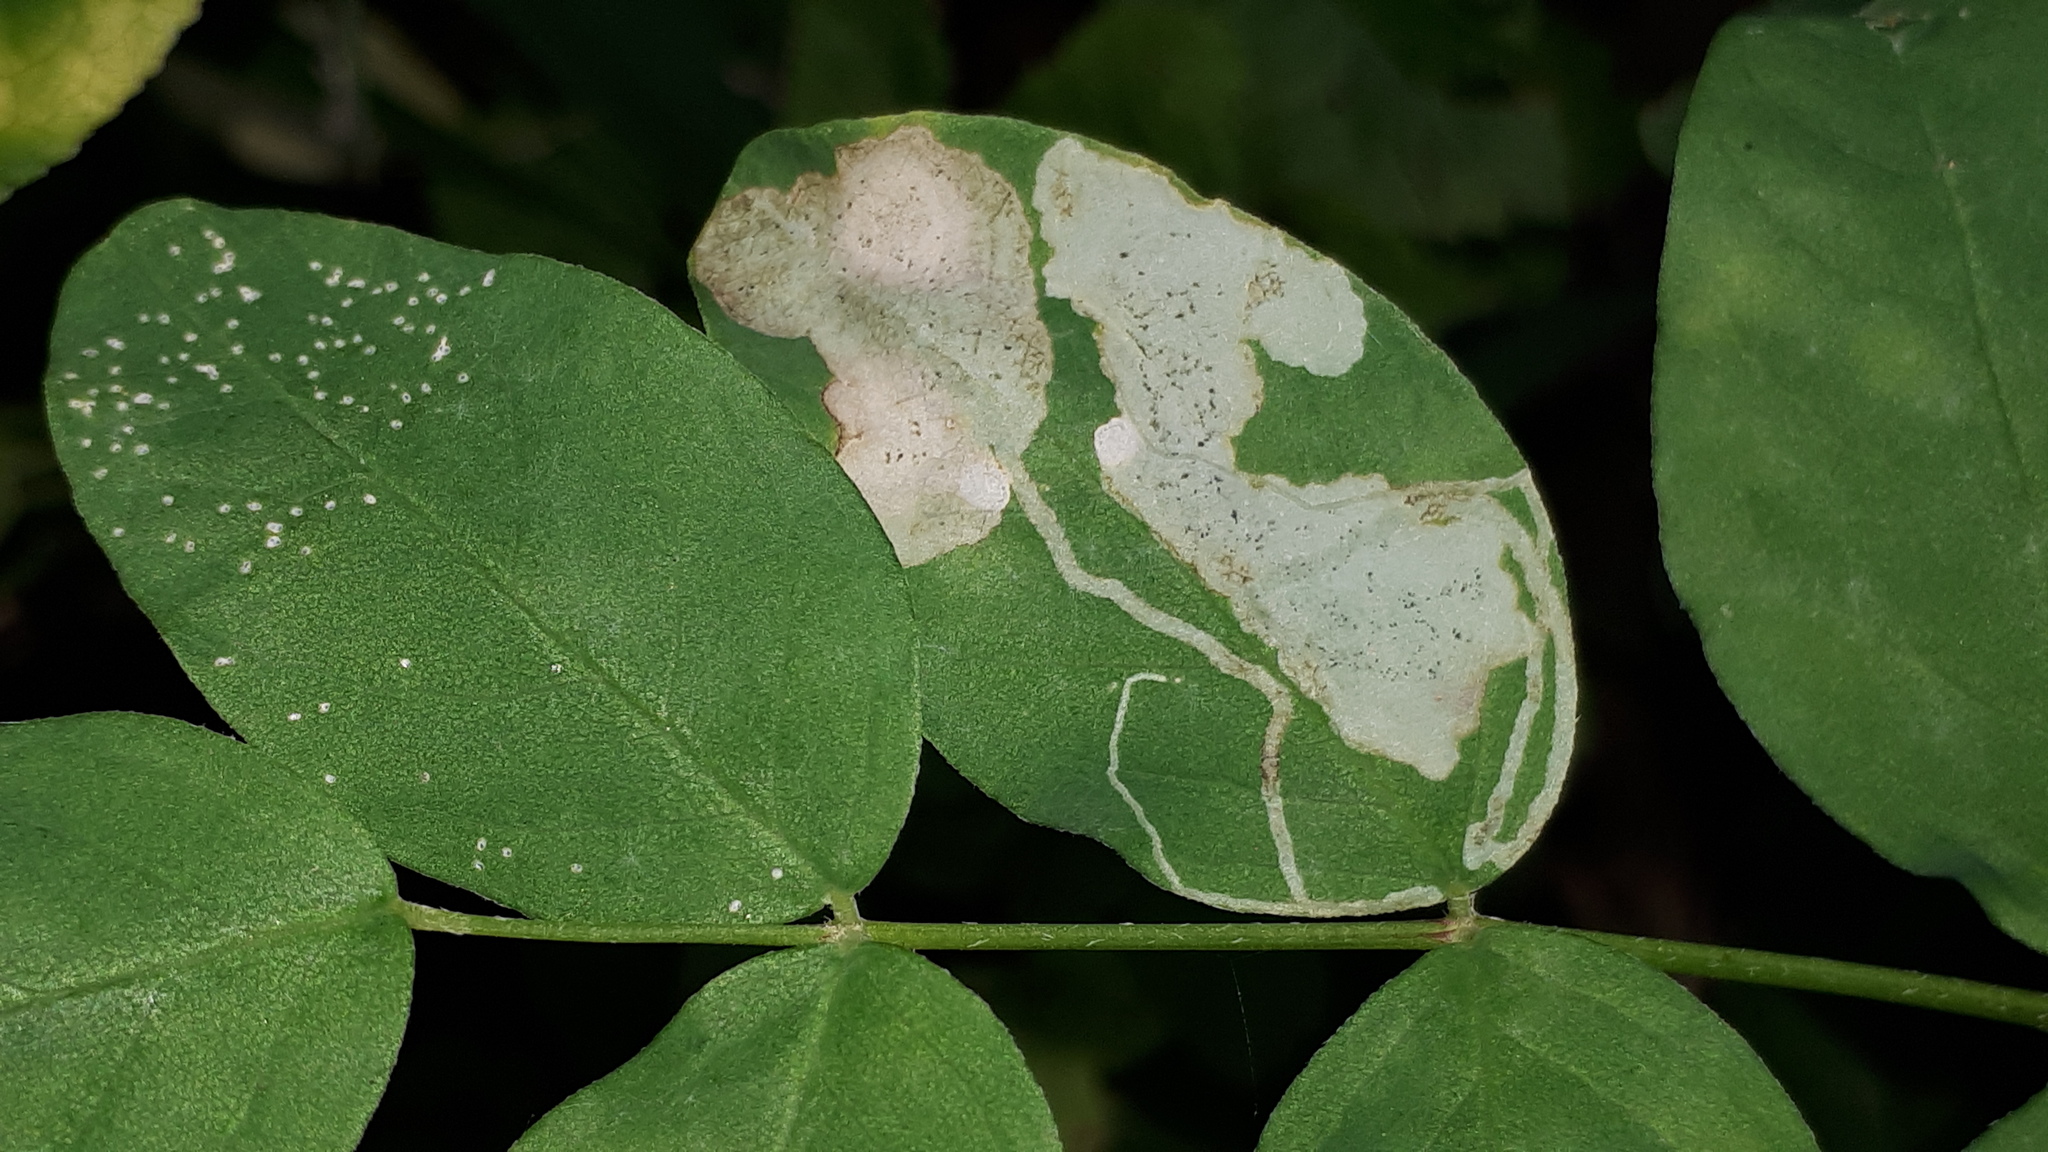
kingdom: Animalia
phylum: Arthropoda
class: Insecta
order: Diptera
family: Agromyzidae
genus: Phytoliriomyza
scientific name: Phytoliriomyza variegata
